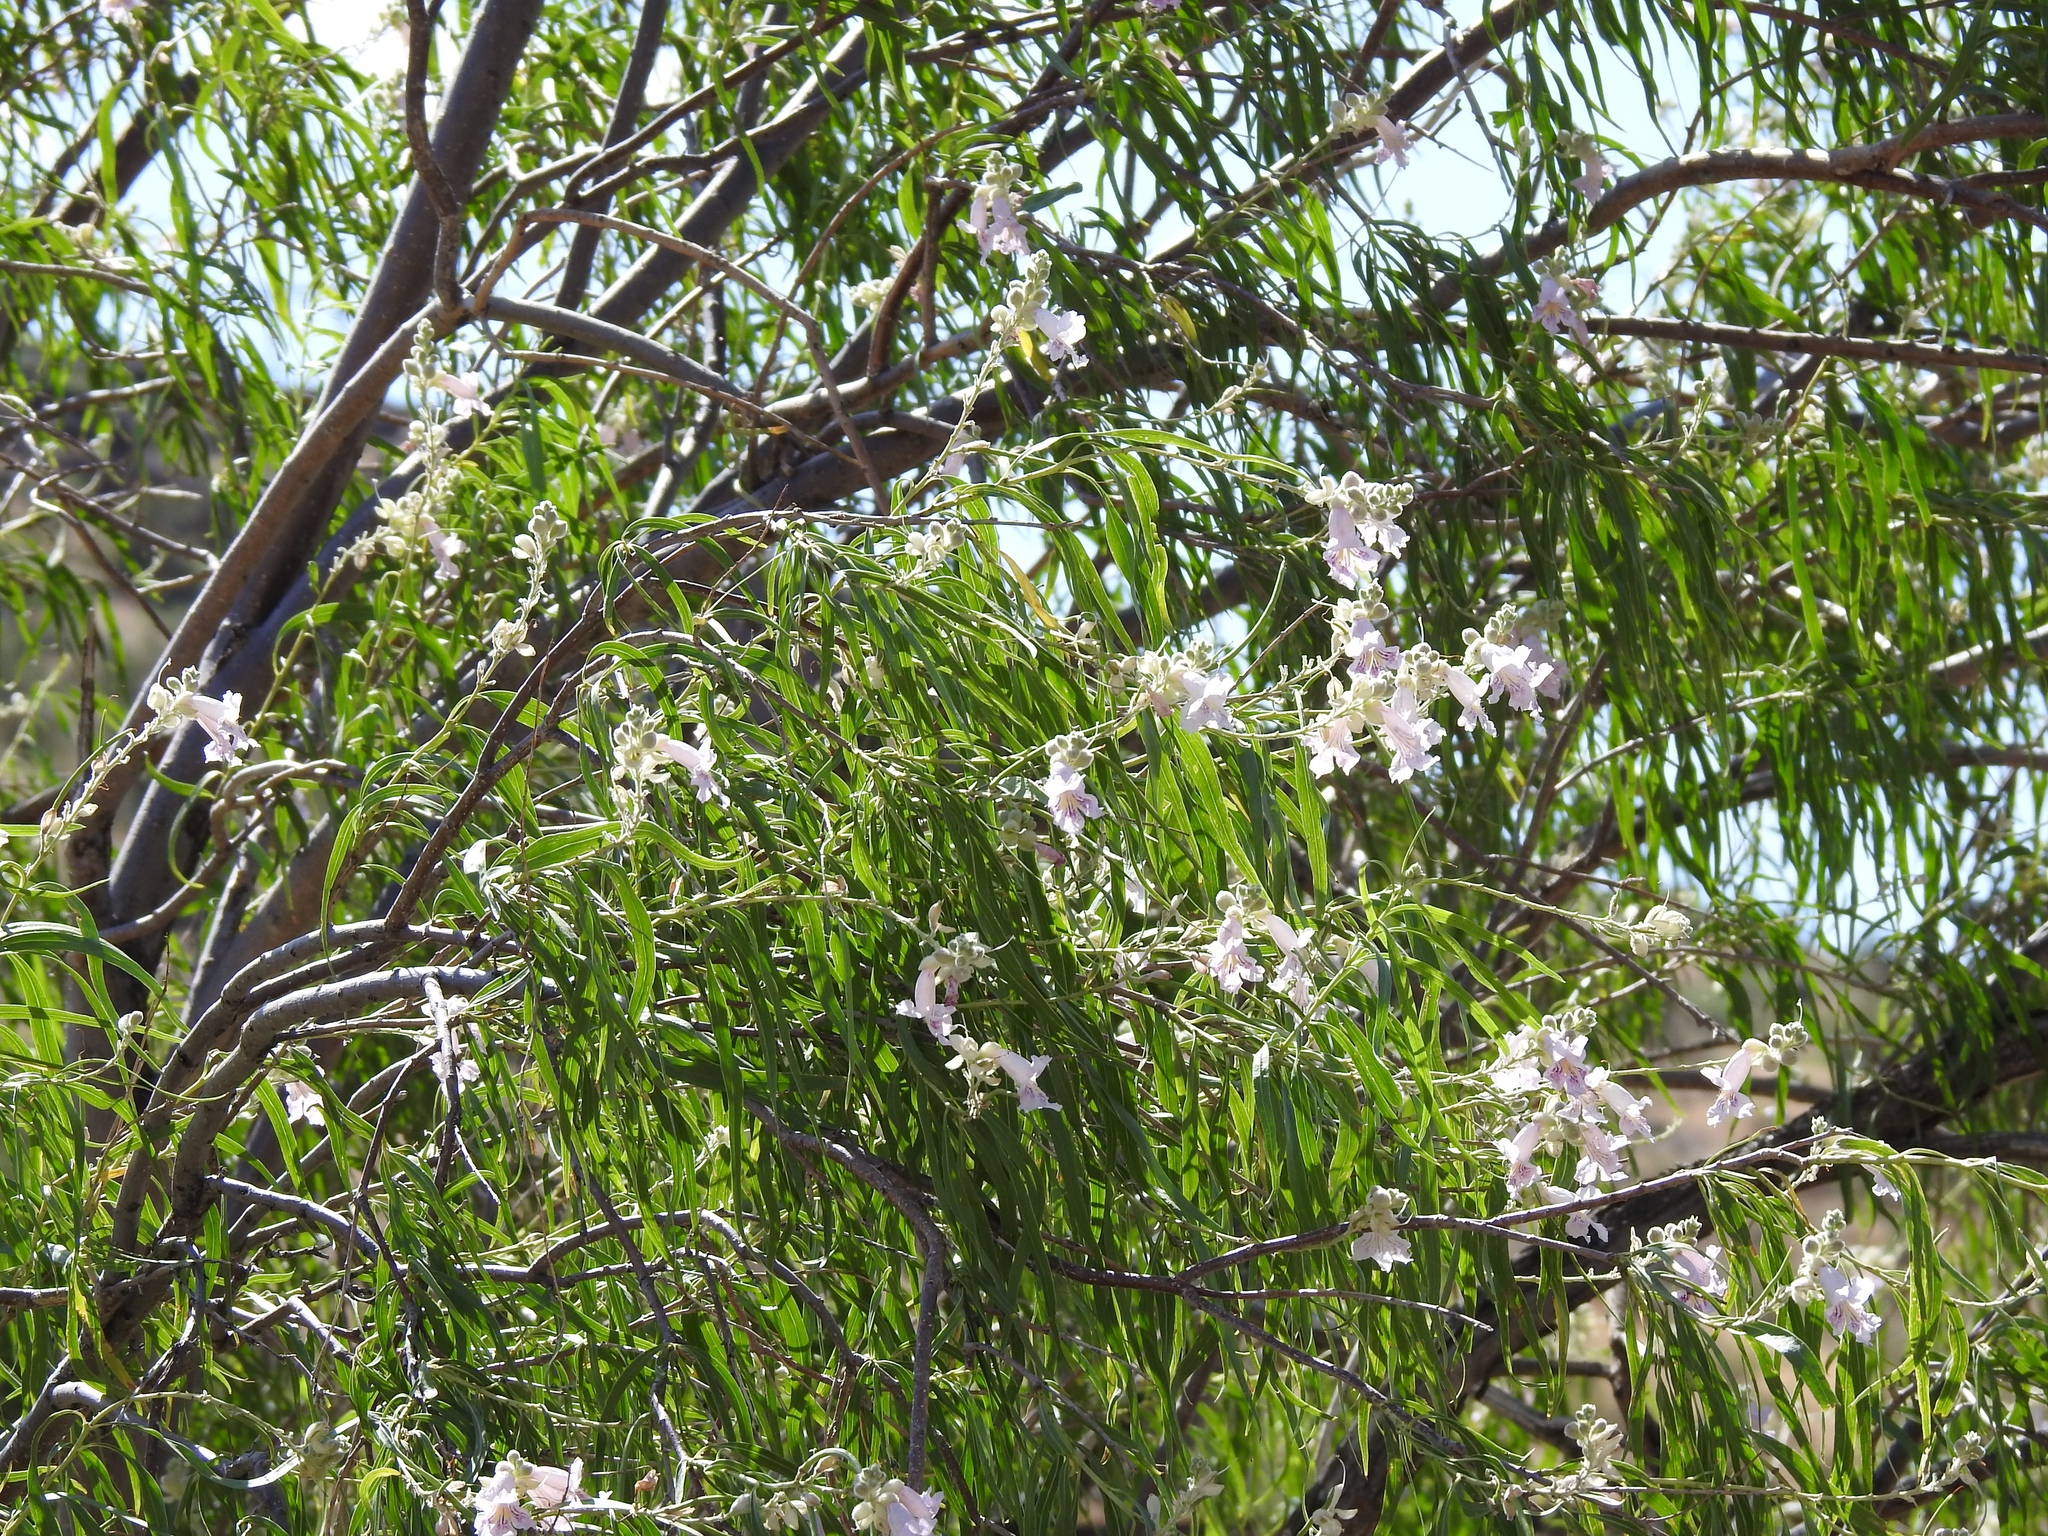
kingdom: Plantae
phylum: Tracheophyta
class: Magnoliopsida
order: Lamiales
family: Bignoniaceae
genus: Chilopsis
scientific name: Chilopsis linearis
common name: Desert-willow
